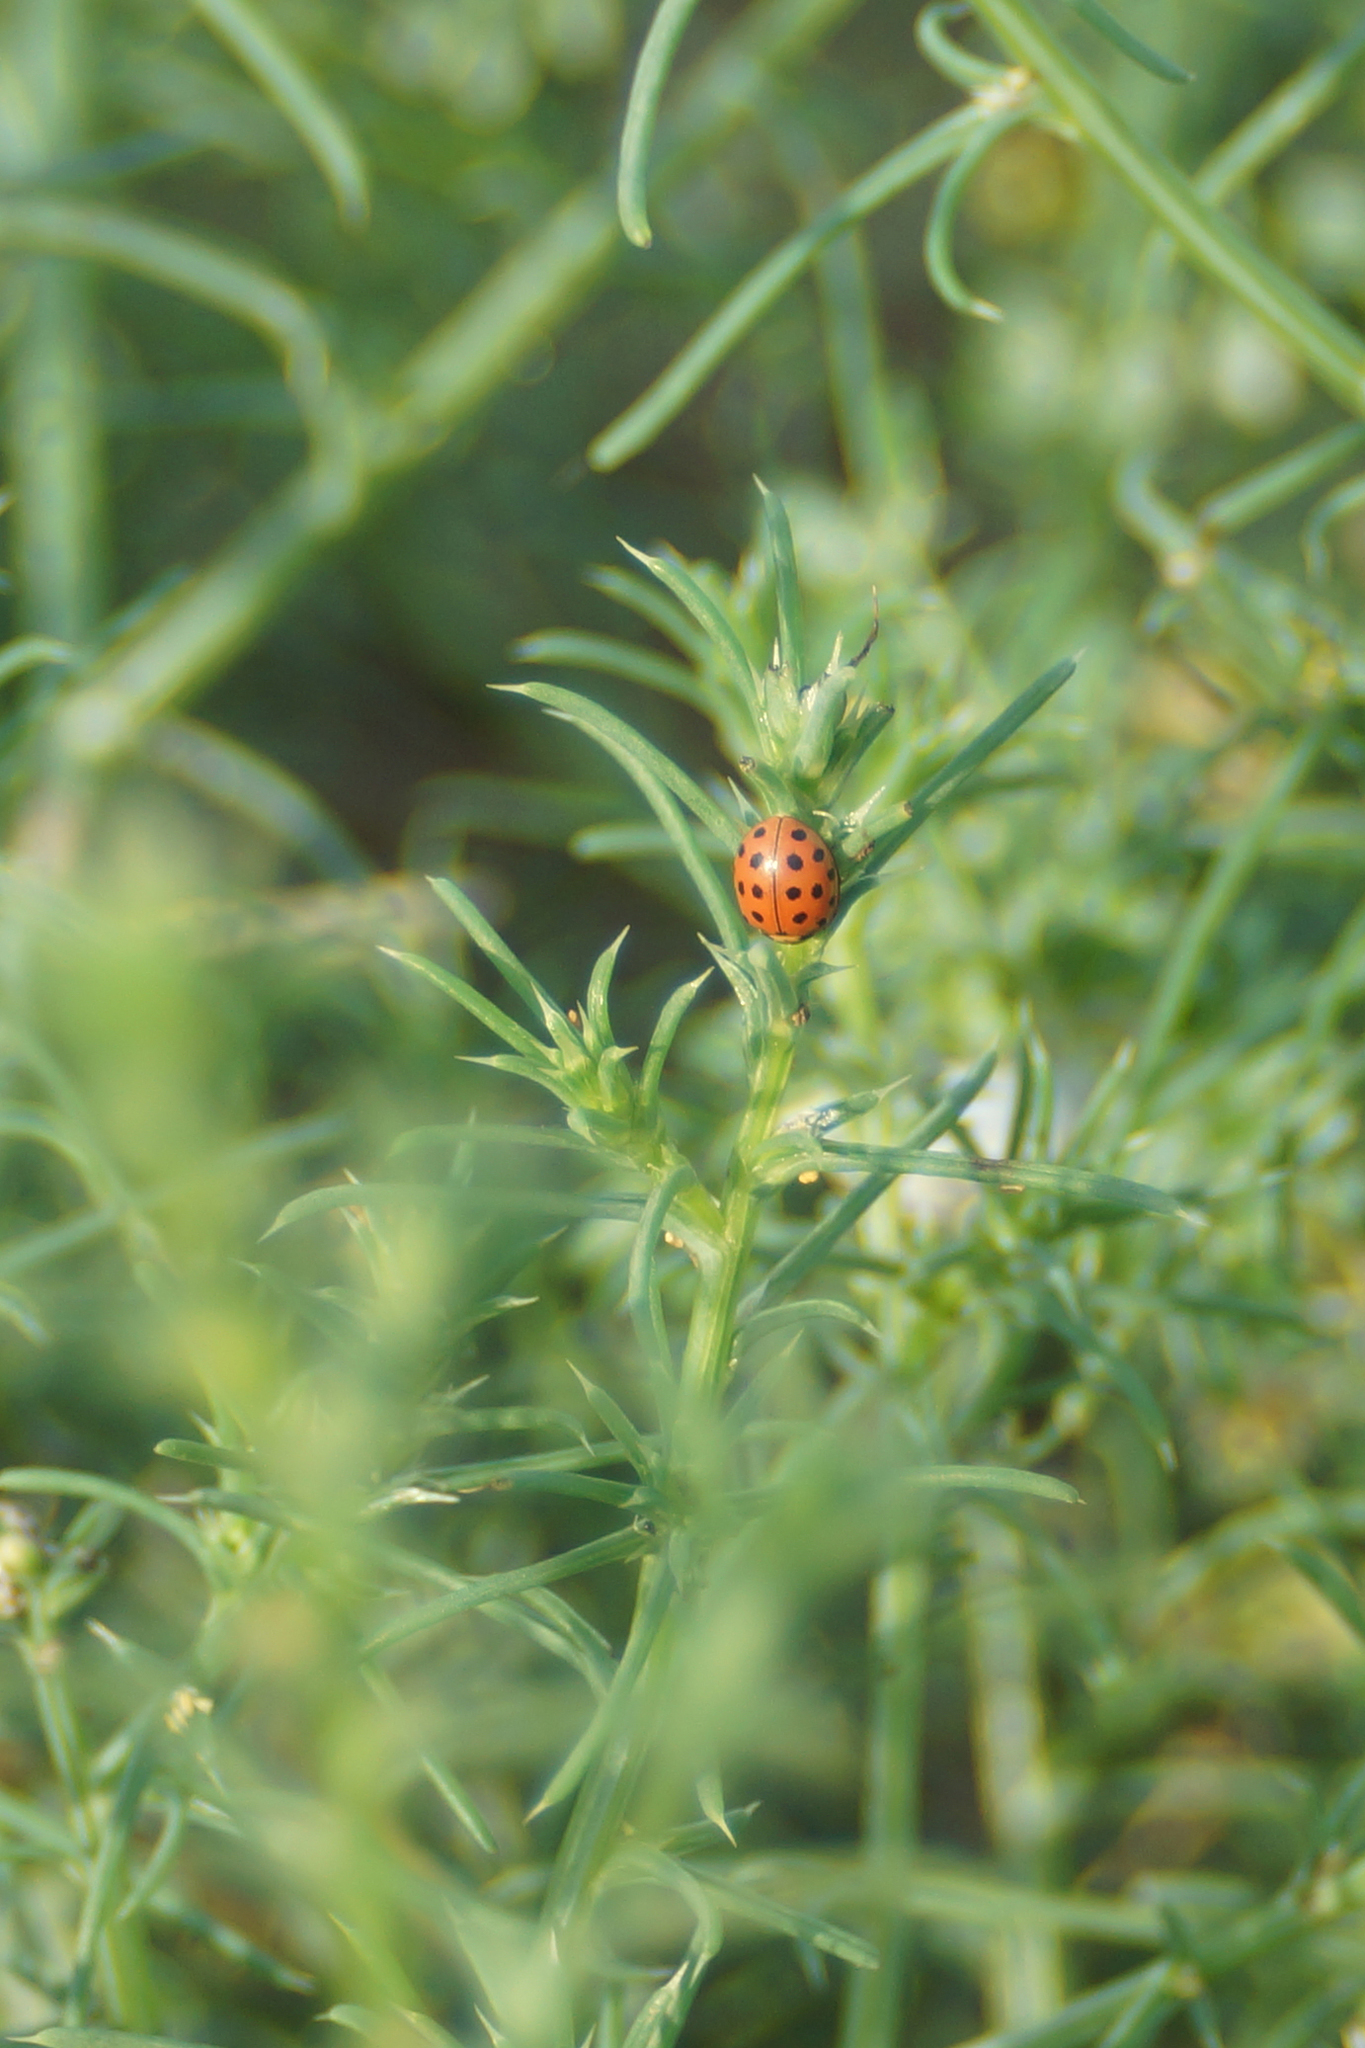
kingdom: Animalia
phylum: Arthropoda
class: Insecta
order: Coleoptera
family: Coccinellidae
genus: Bulaea
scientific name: Bulaea lichatschovi
